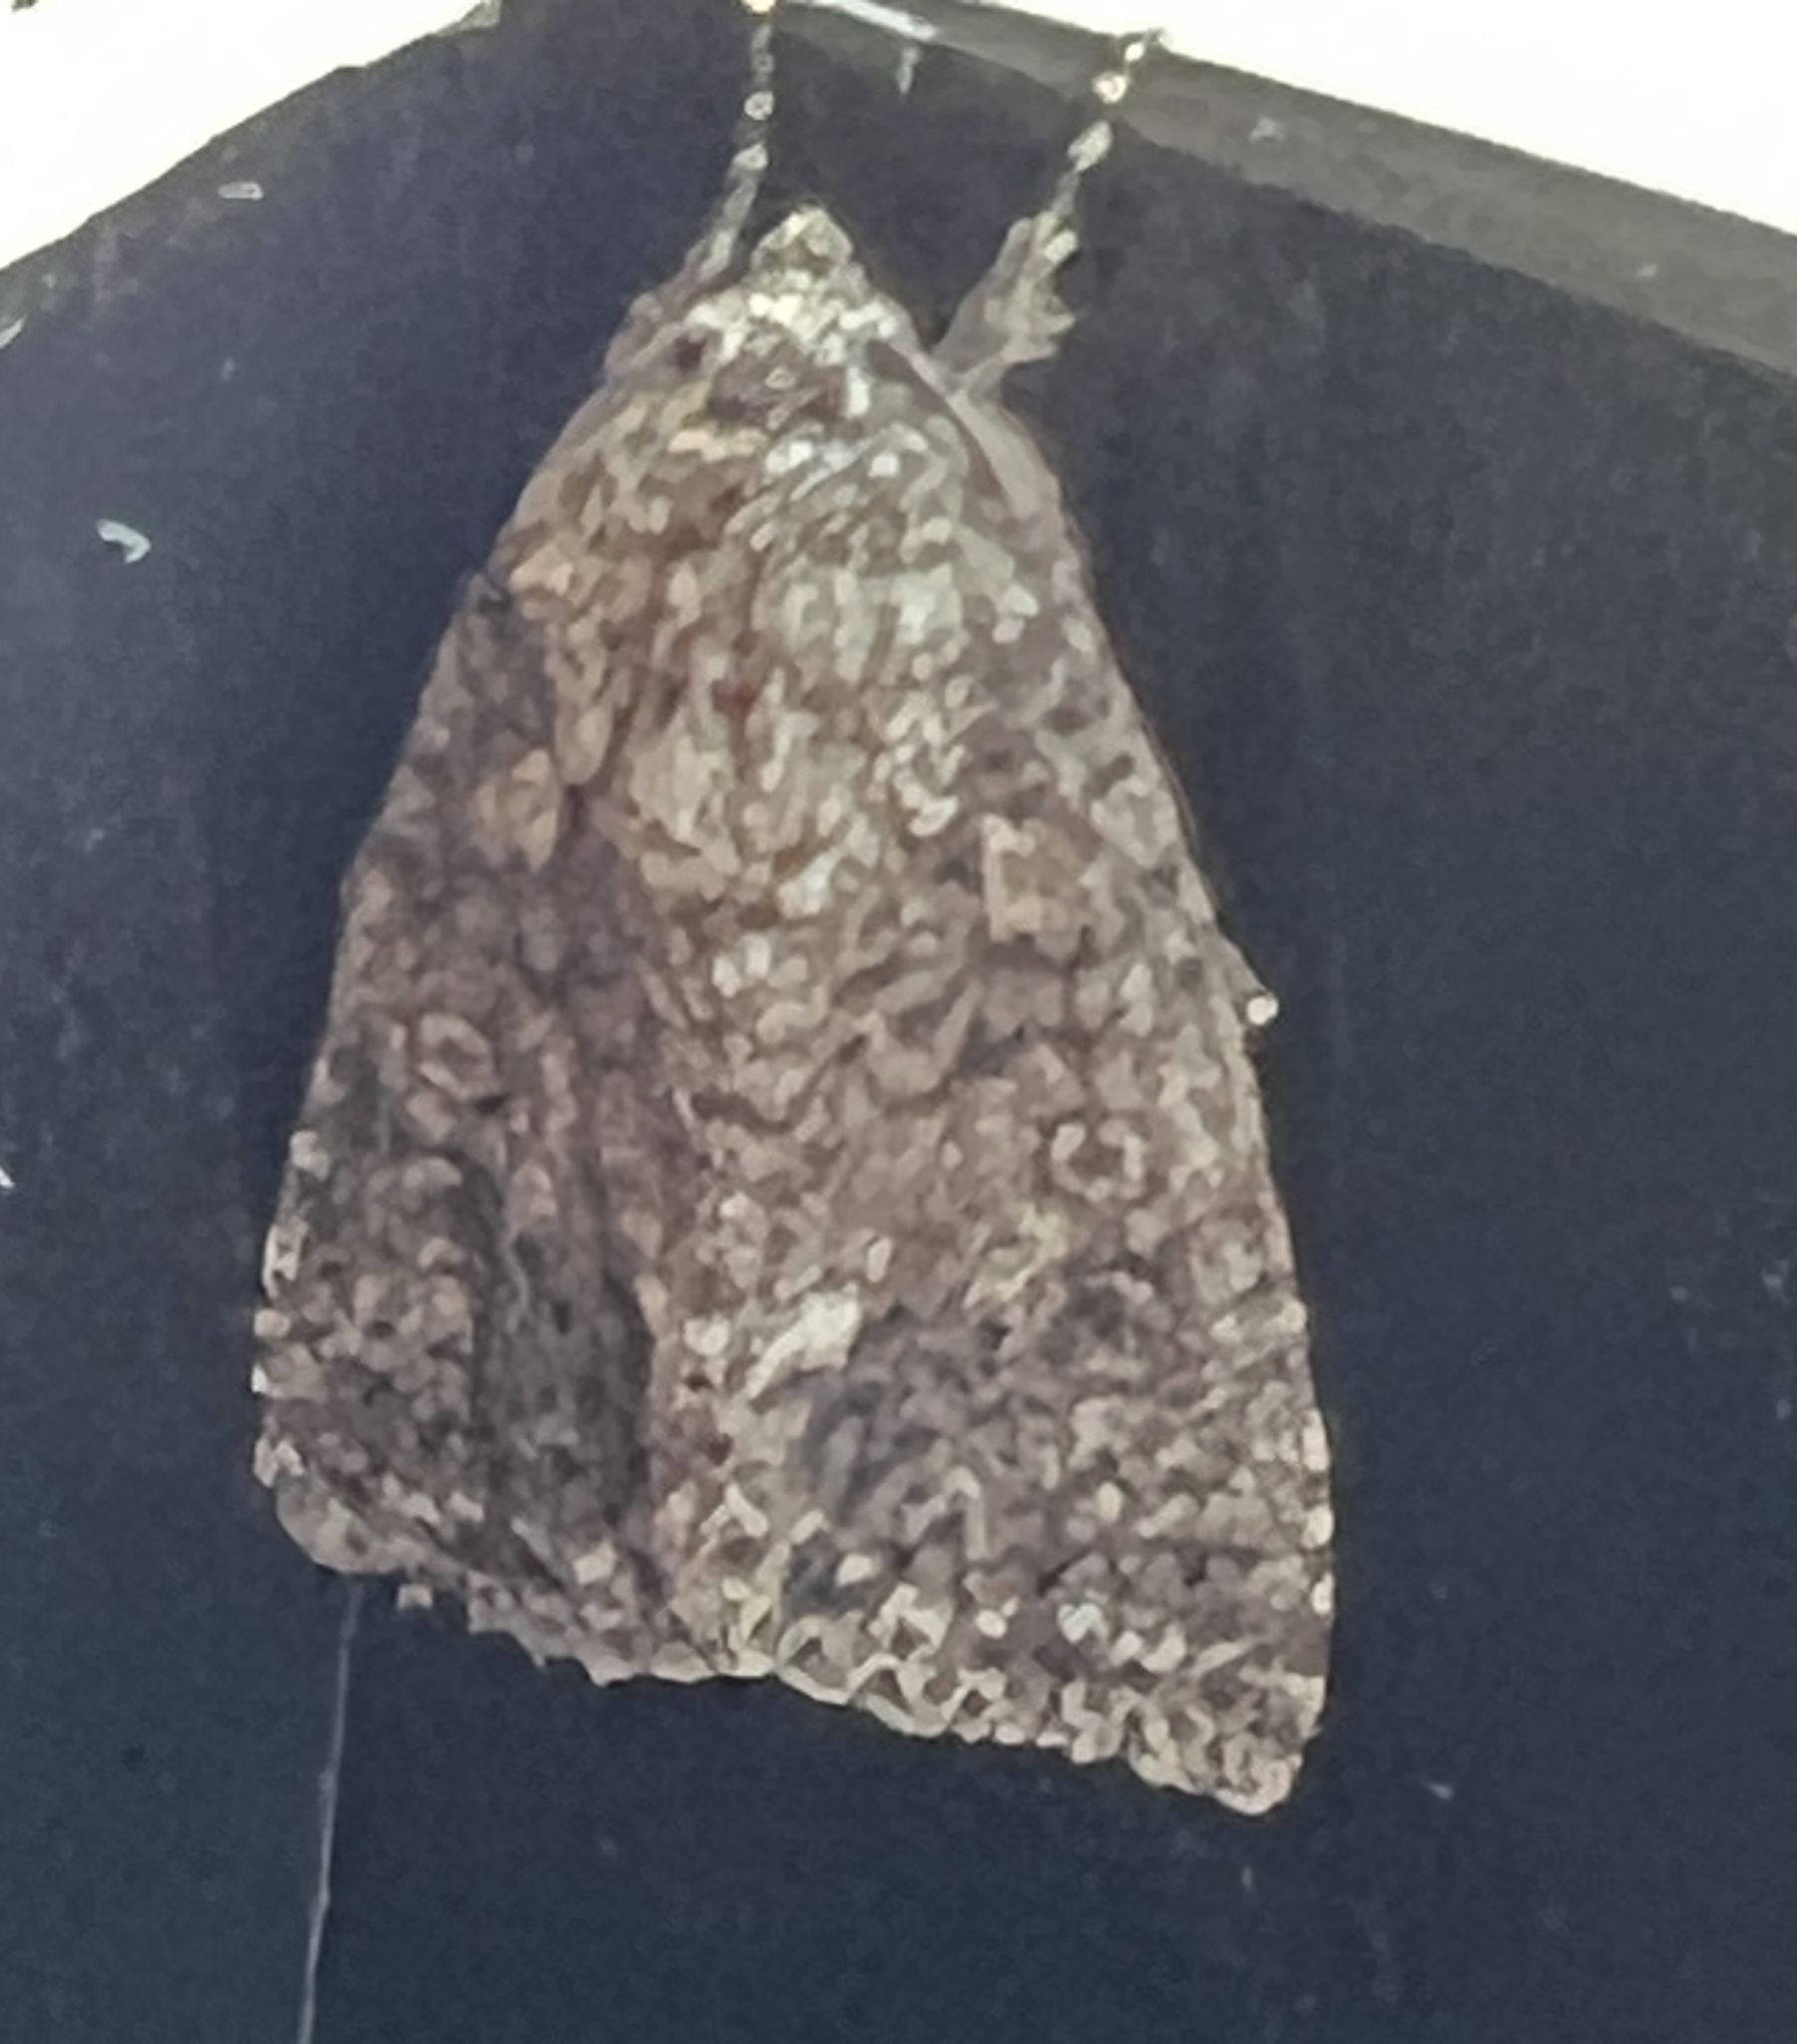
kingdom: Animalia
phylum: Arthropoda
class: Insecta
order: Lepidoptera
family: Noctuidae
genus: Acronicta
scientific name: Acronicta rumicis
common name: Knot grass
